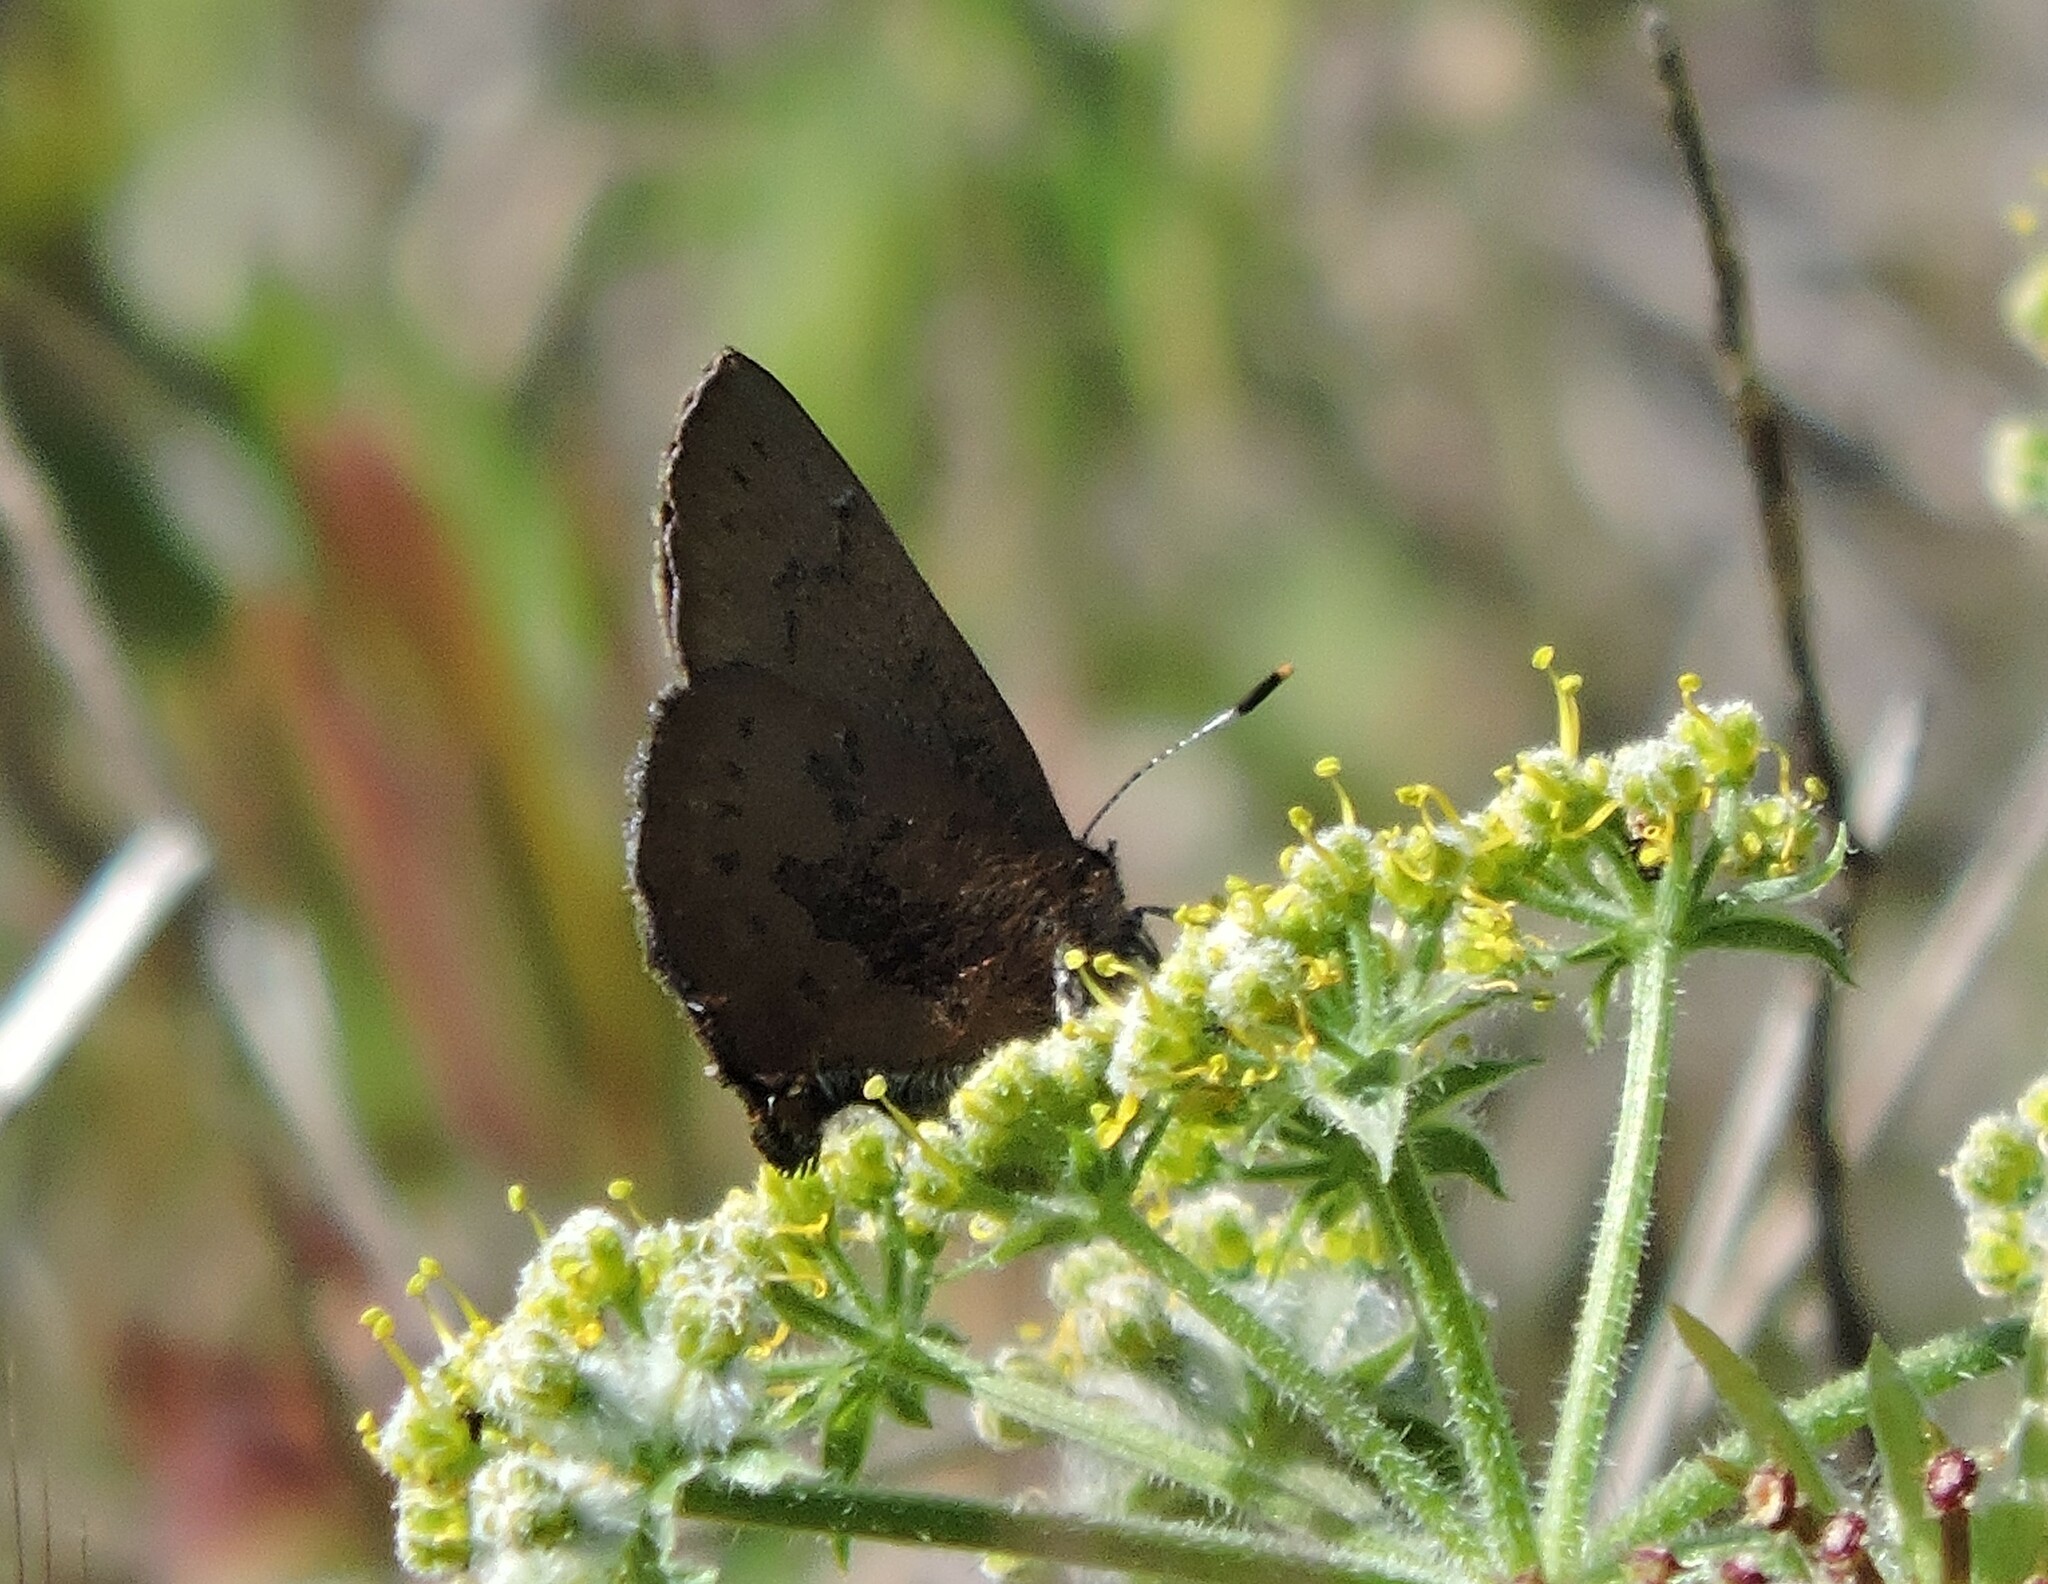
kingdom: Animalia
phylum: Arthropoda
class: Insecta
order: Lepidoptera
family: Lycaenidae
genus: Incisalia
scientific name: Incisalia irioides
